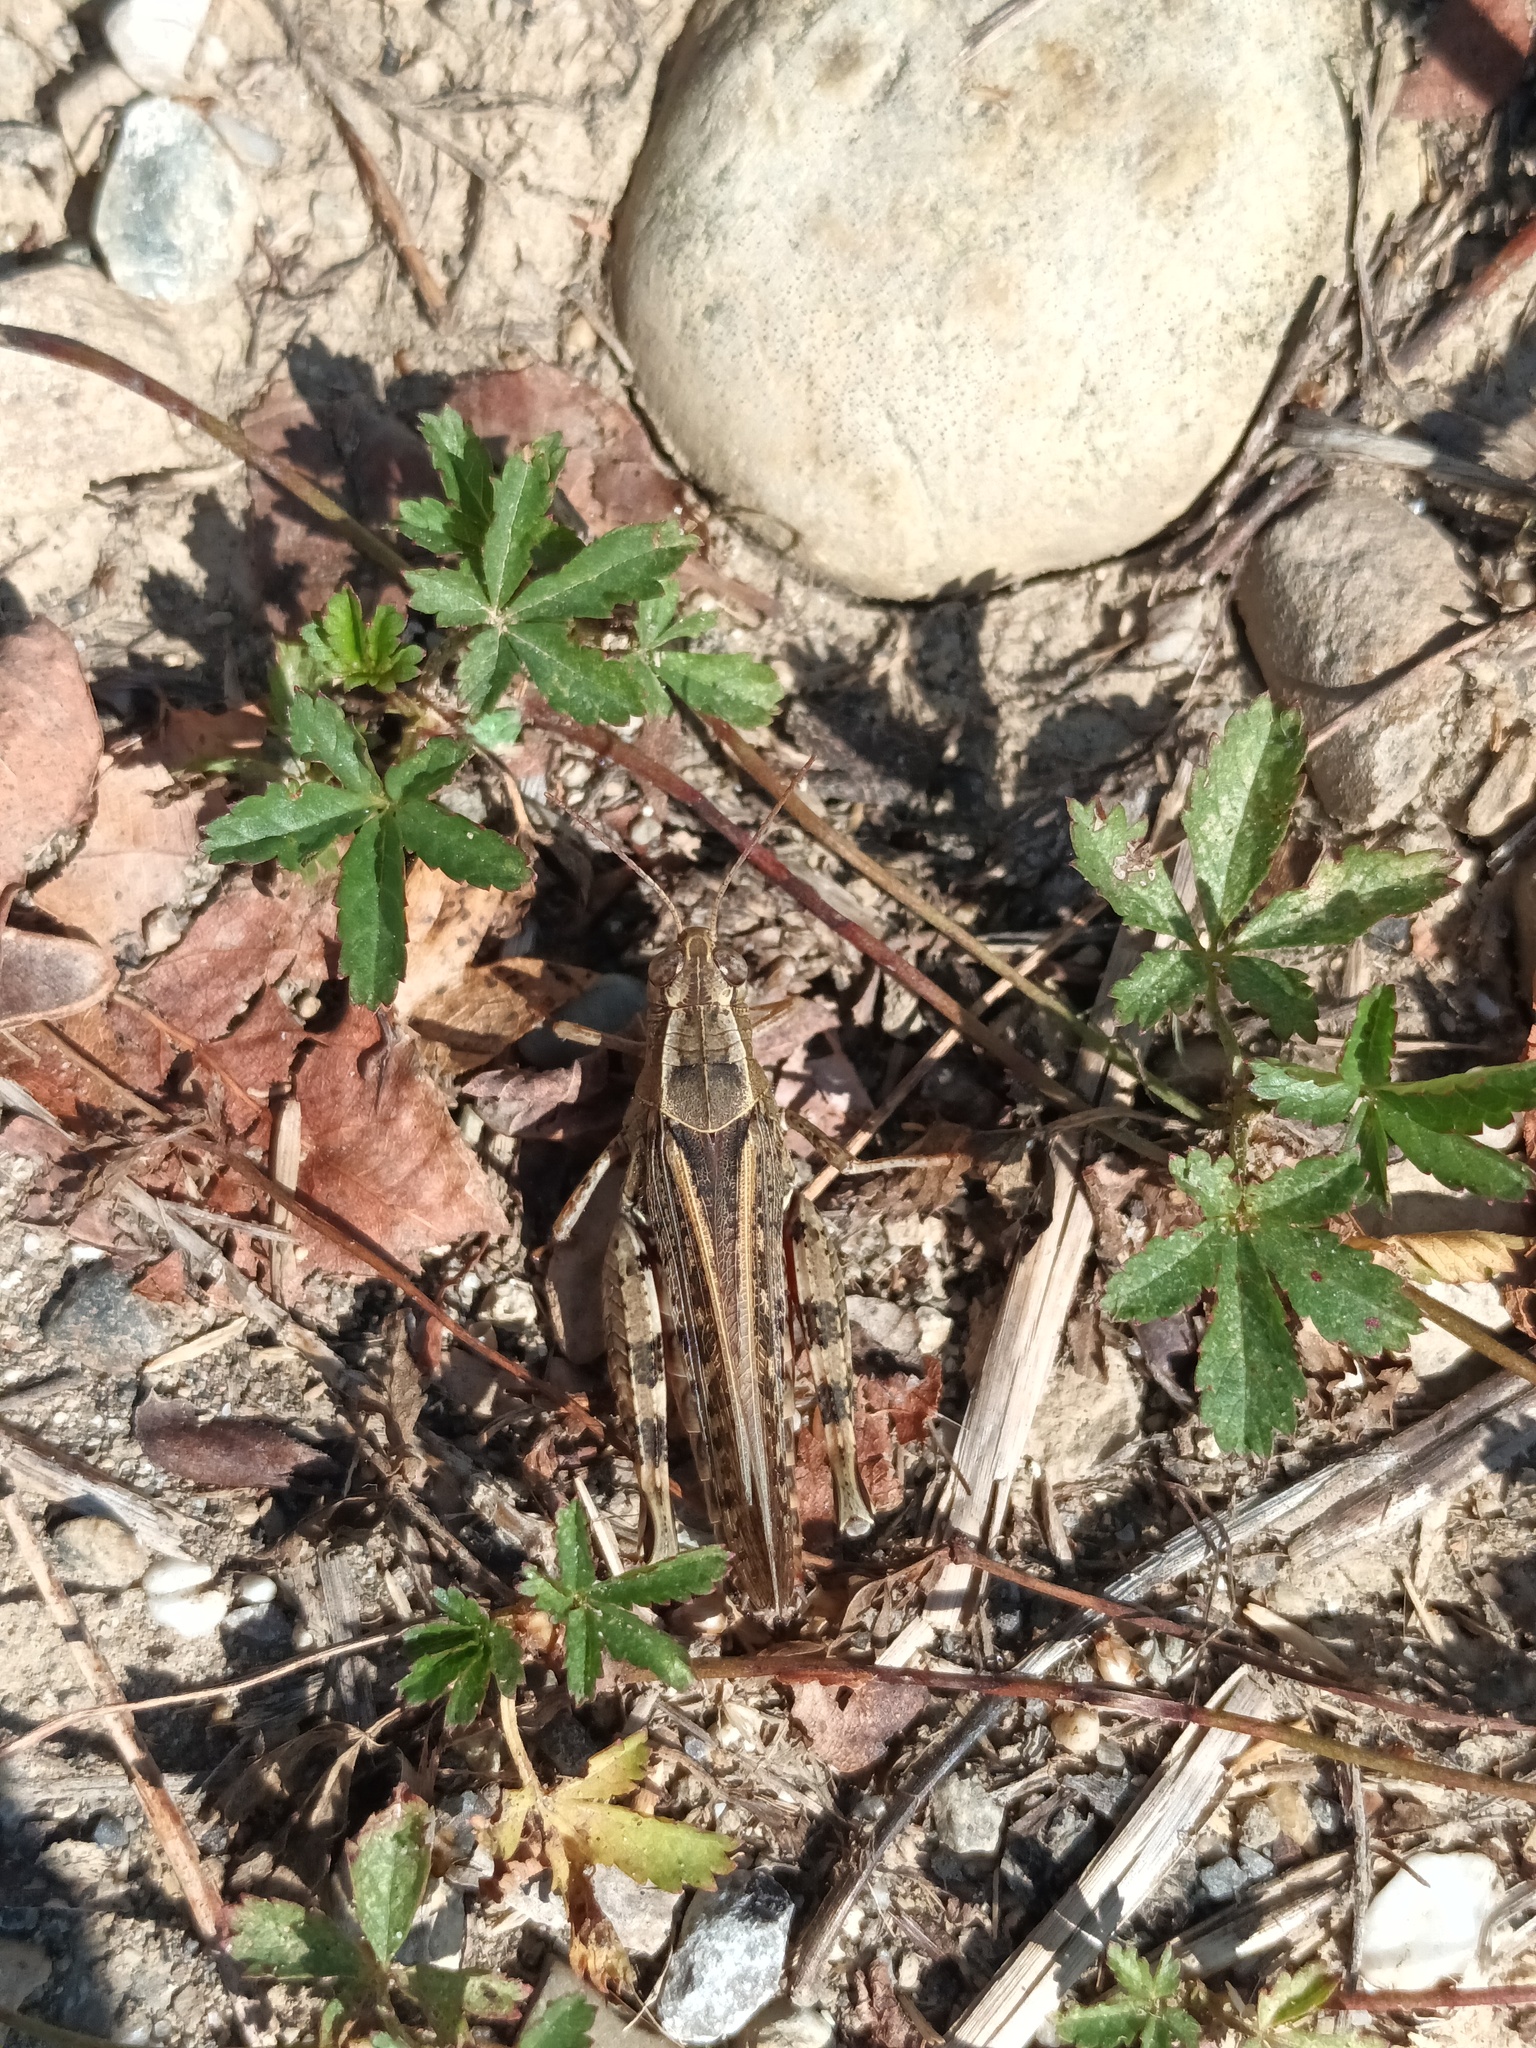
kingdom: Animalia
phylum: Arthropoda
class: Insecta
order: Orthoptera
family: Acrididae
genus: Calliptamus
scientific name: Calliptamus italicus
